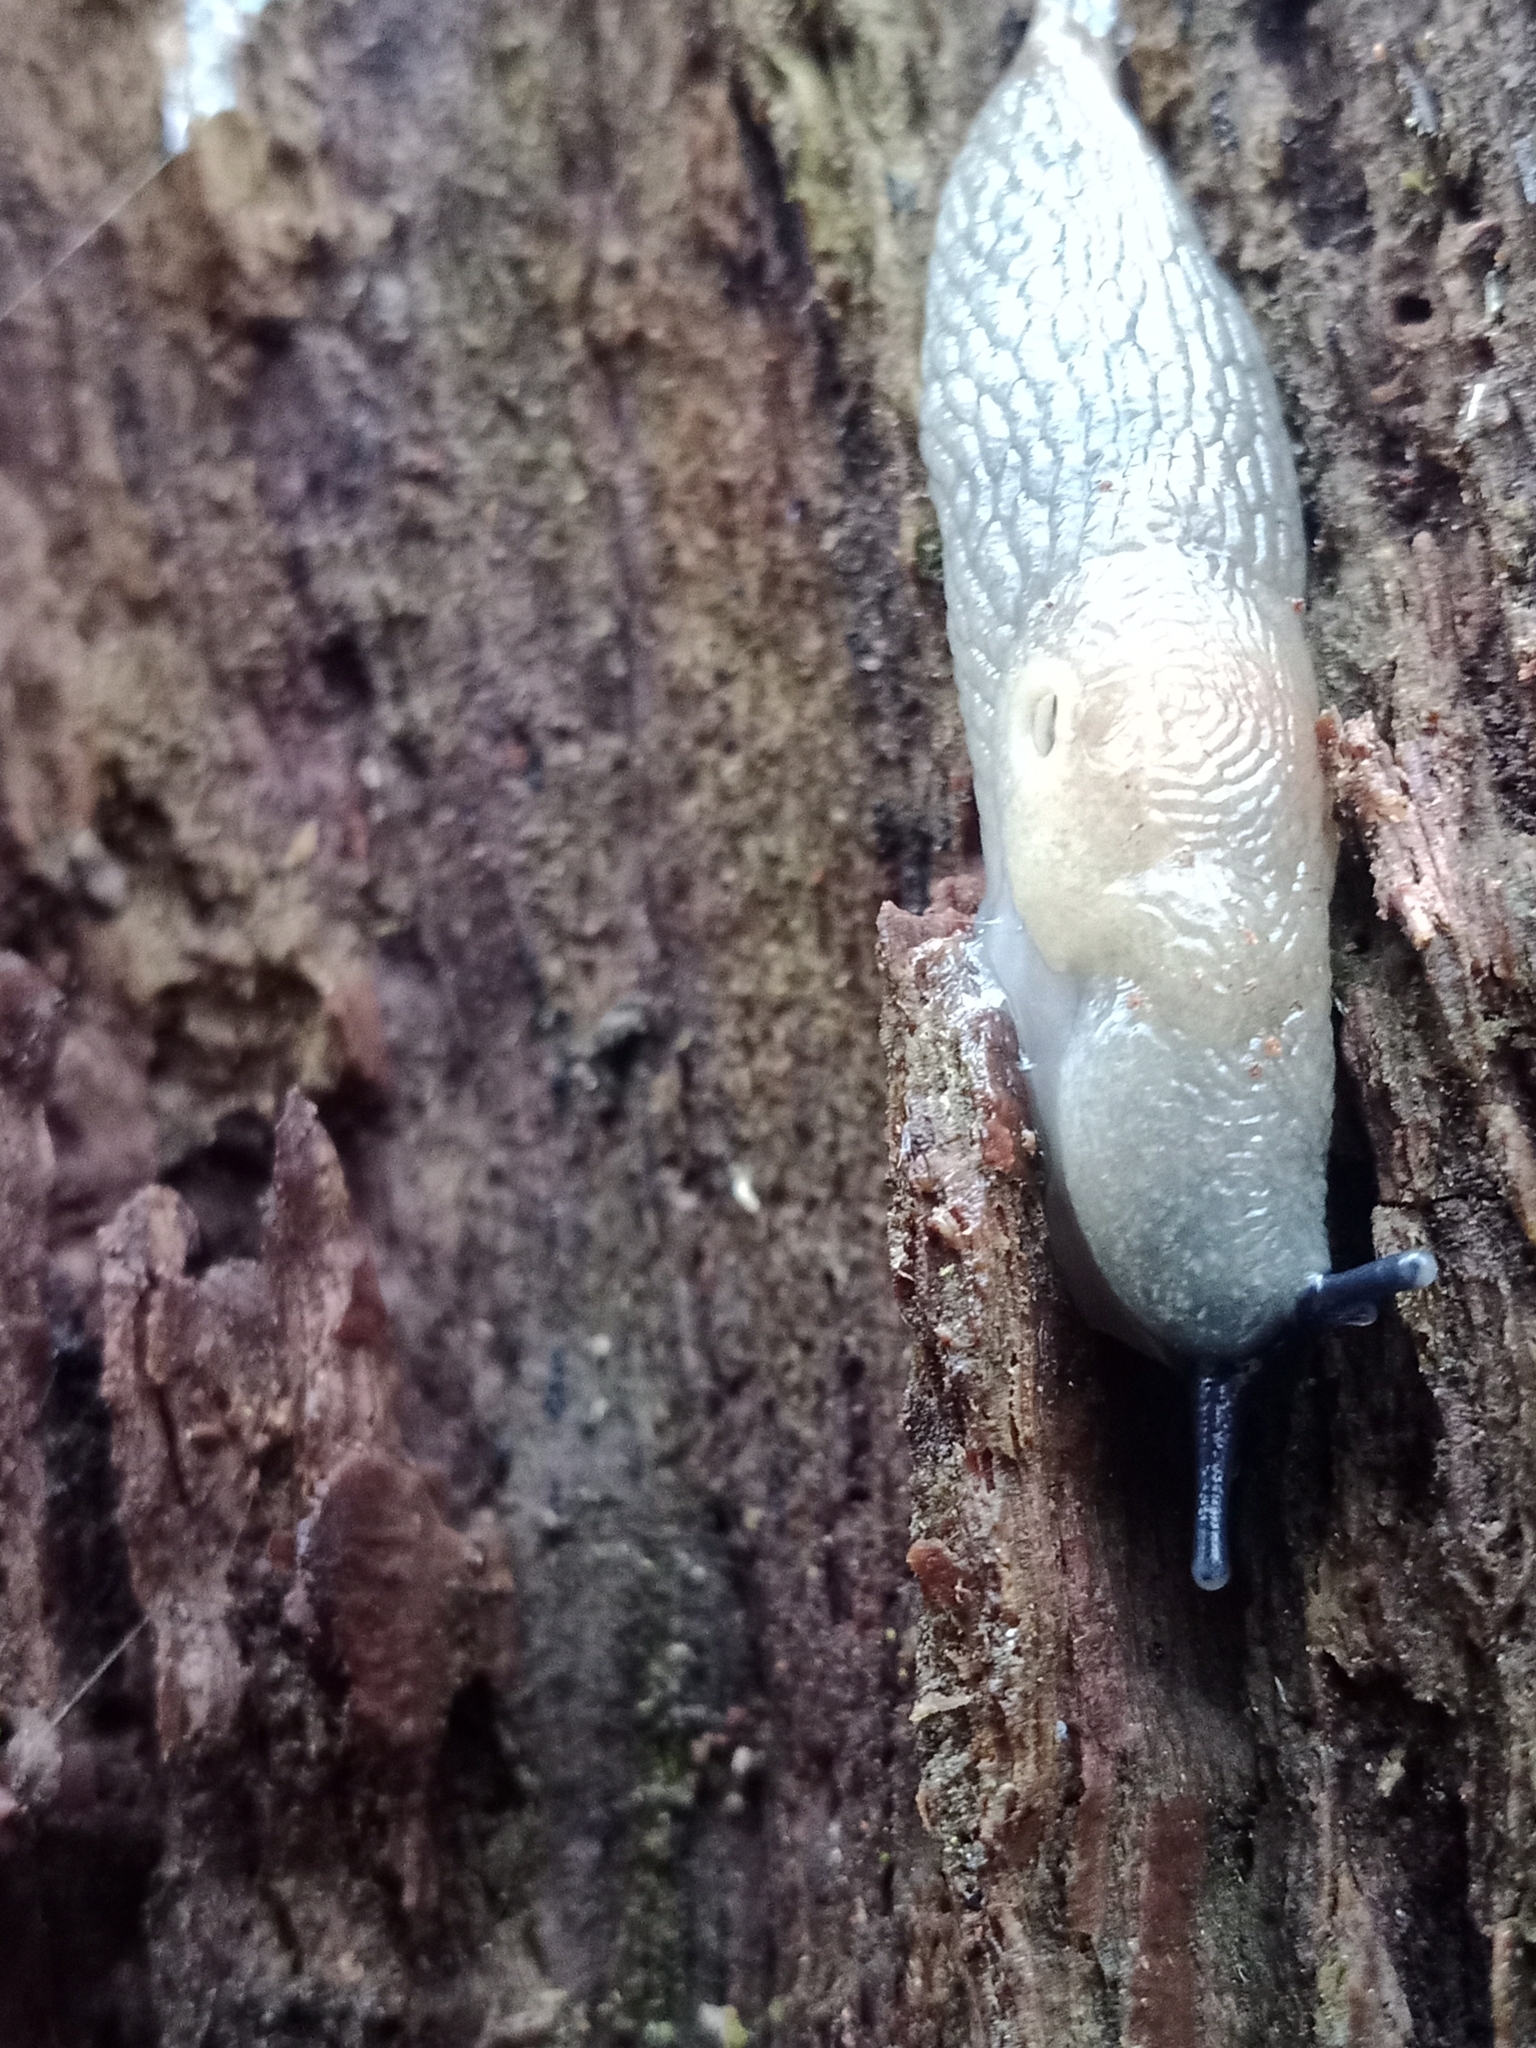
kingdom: Animalia
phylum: Mollusca
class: Gastropoda
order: Stylommatophora
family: Agriolimacidae
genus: Krynickillus
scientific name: Krynickillus melanocephalus
